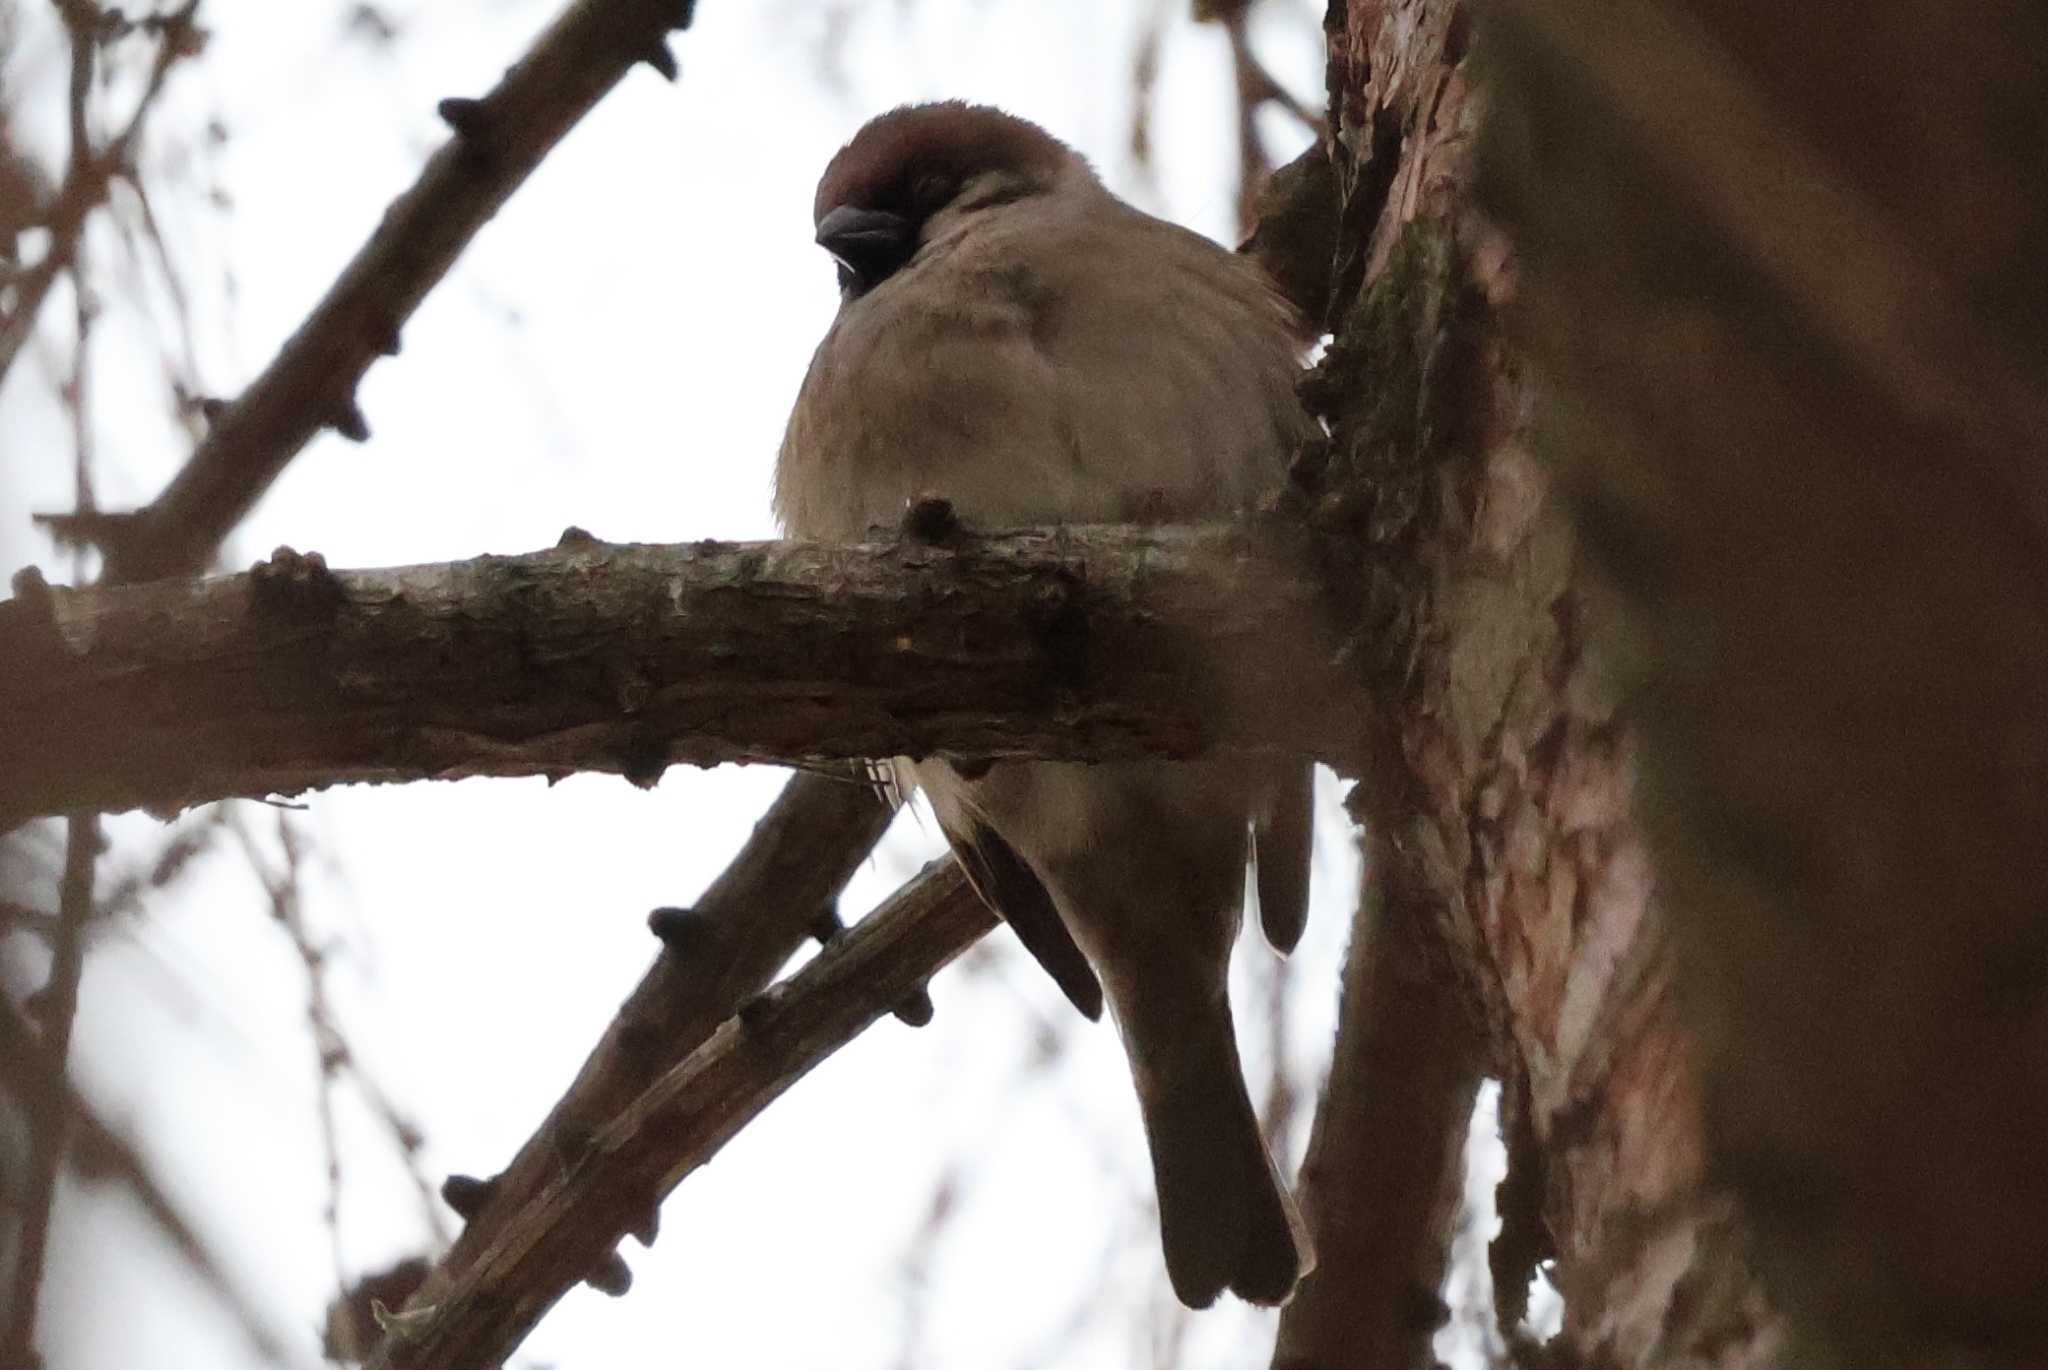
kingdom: Animalia
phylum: Chordata
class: Aves
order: Passeriformes
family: Passeridae
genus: Passer
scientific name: Passer montanus
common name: Eurasian tree sparrow
